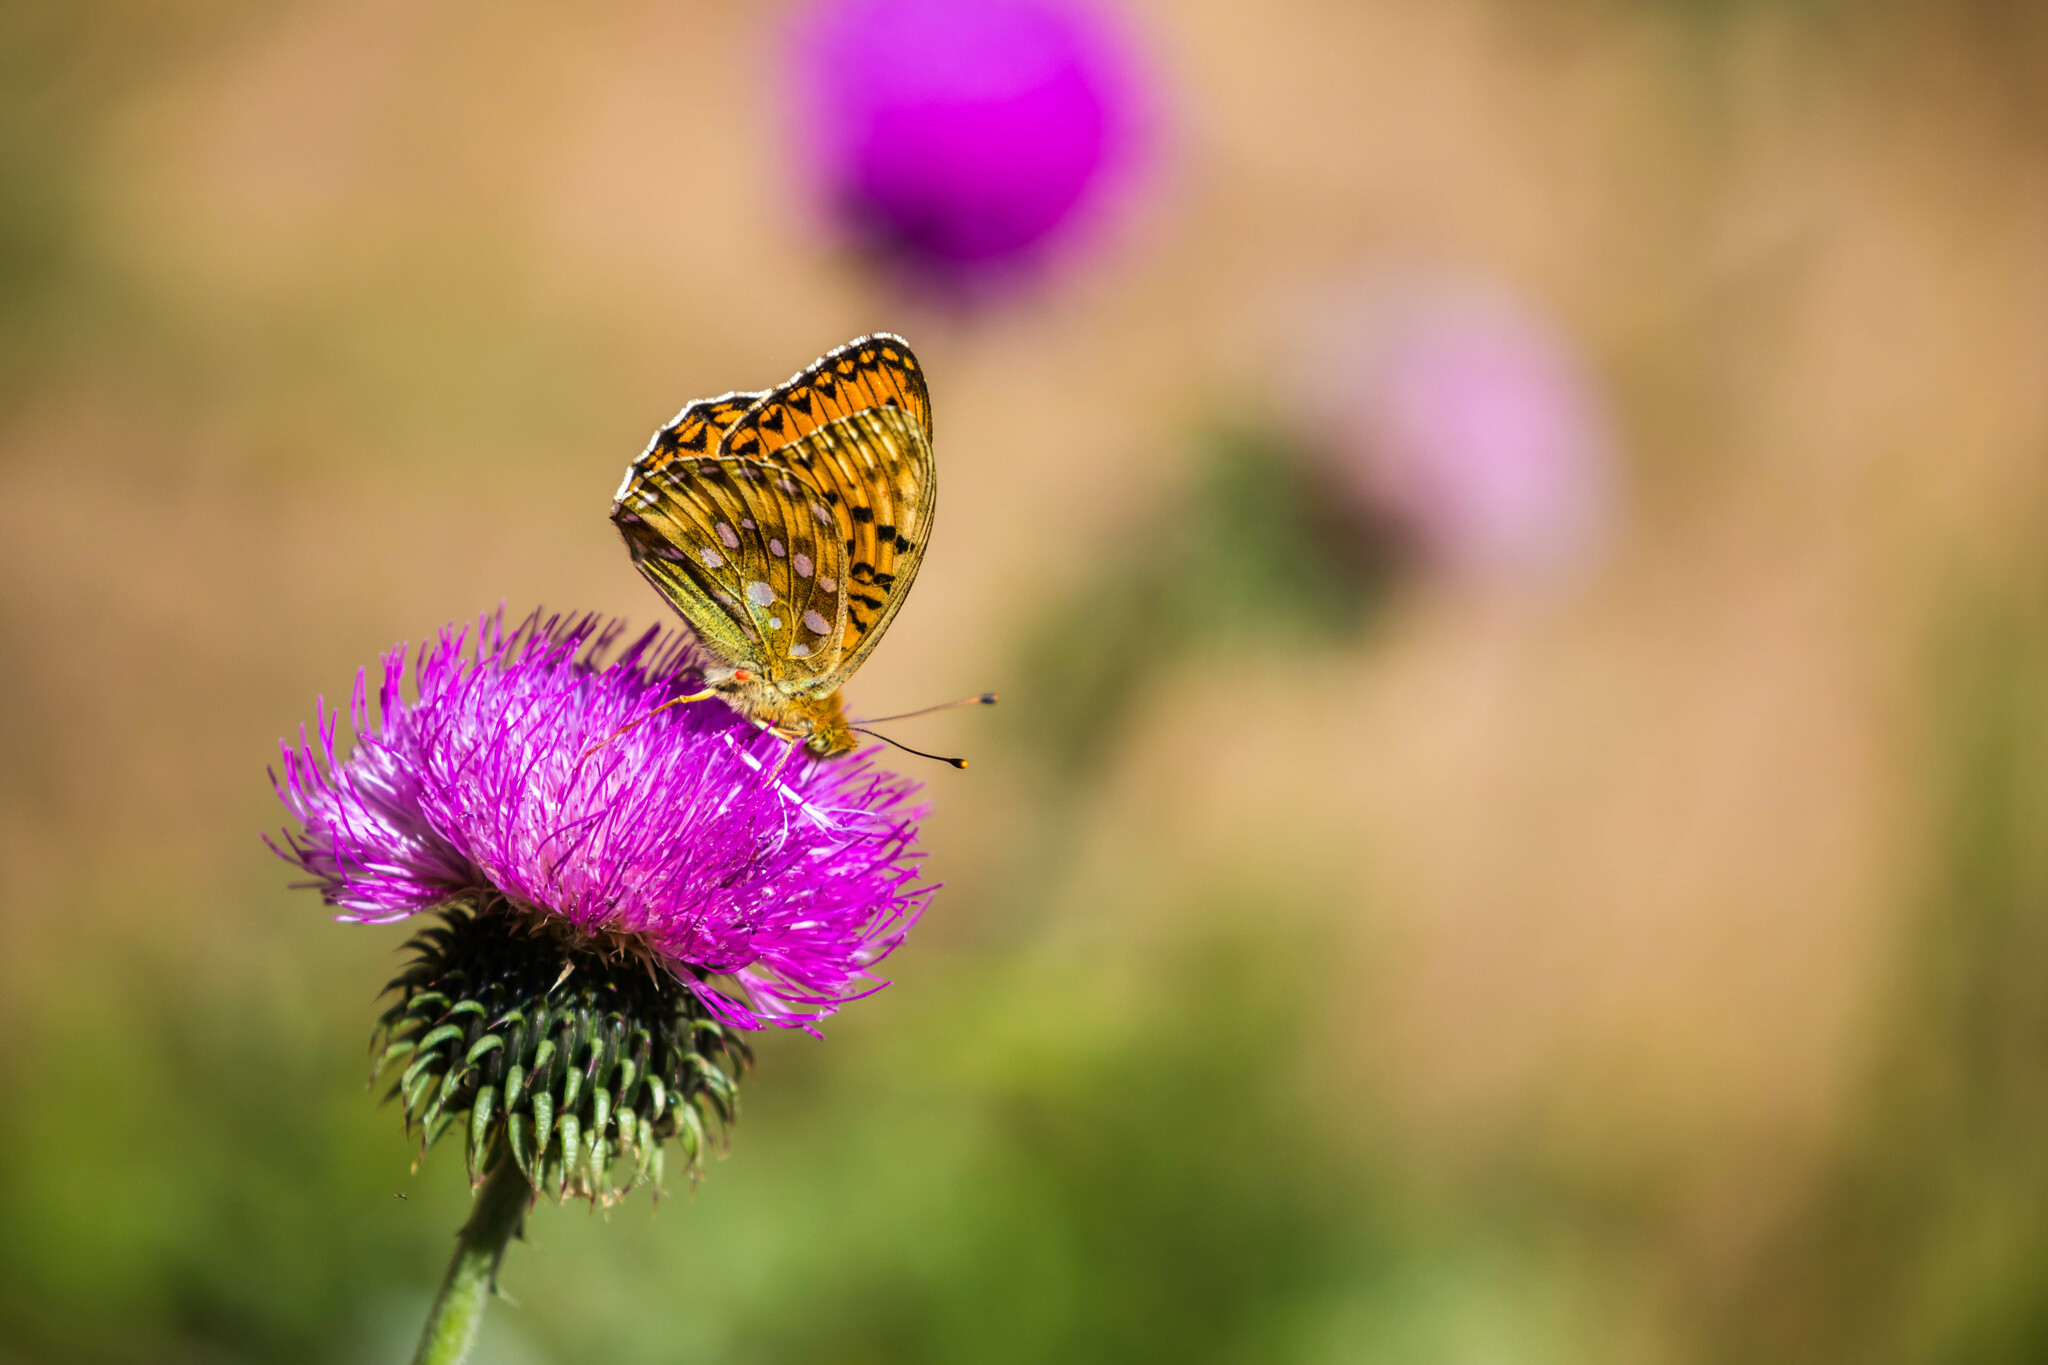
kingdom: Animalia
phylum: Arthropoda
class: Insecta
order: Lepidoptera
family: Nymphalidae
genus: Speyeria
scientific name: Speyeria aglaja
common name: Dark green fritillary
